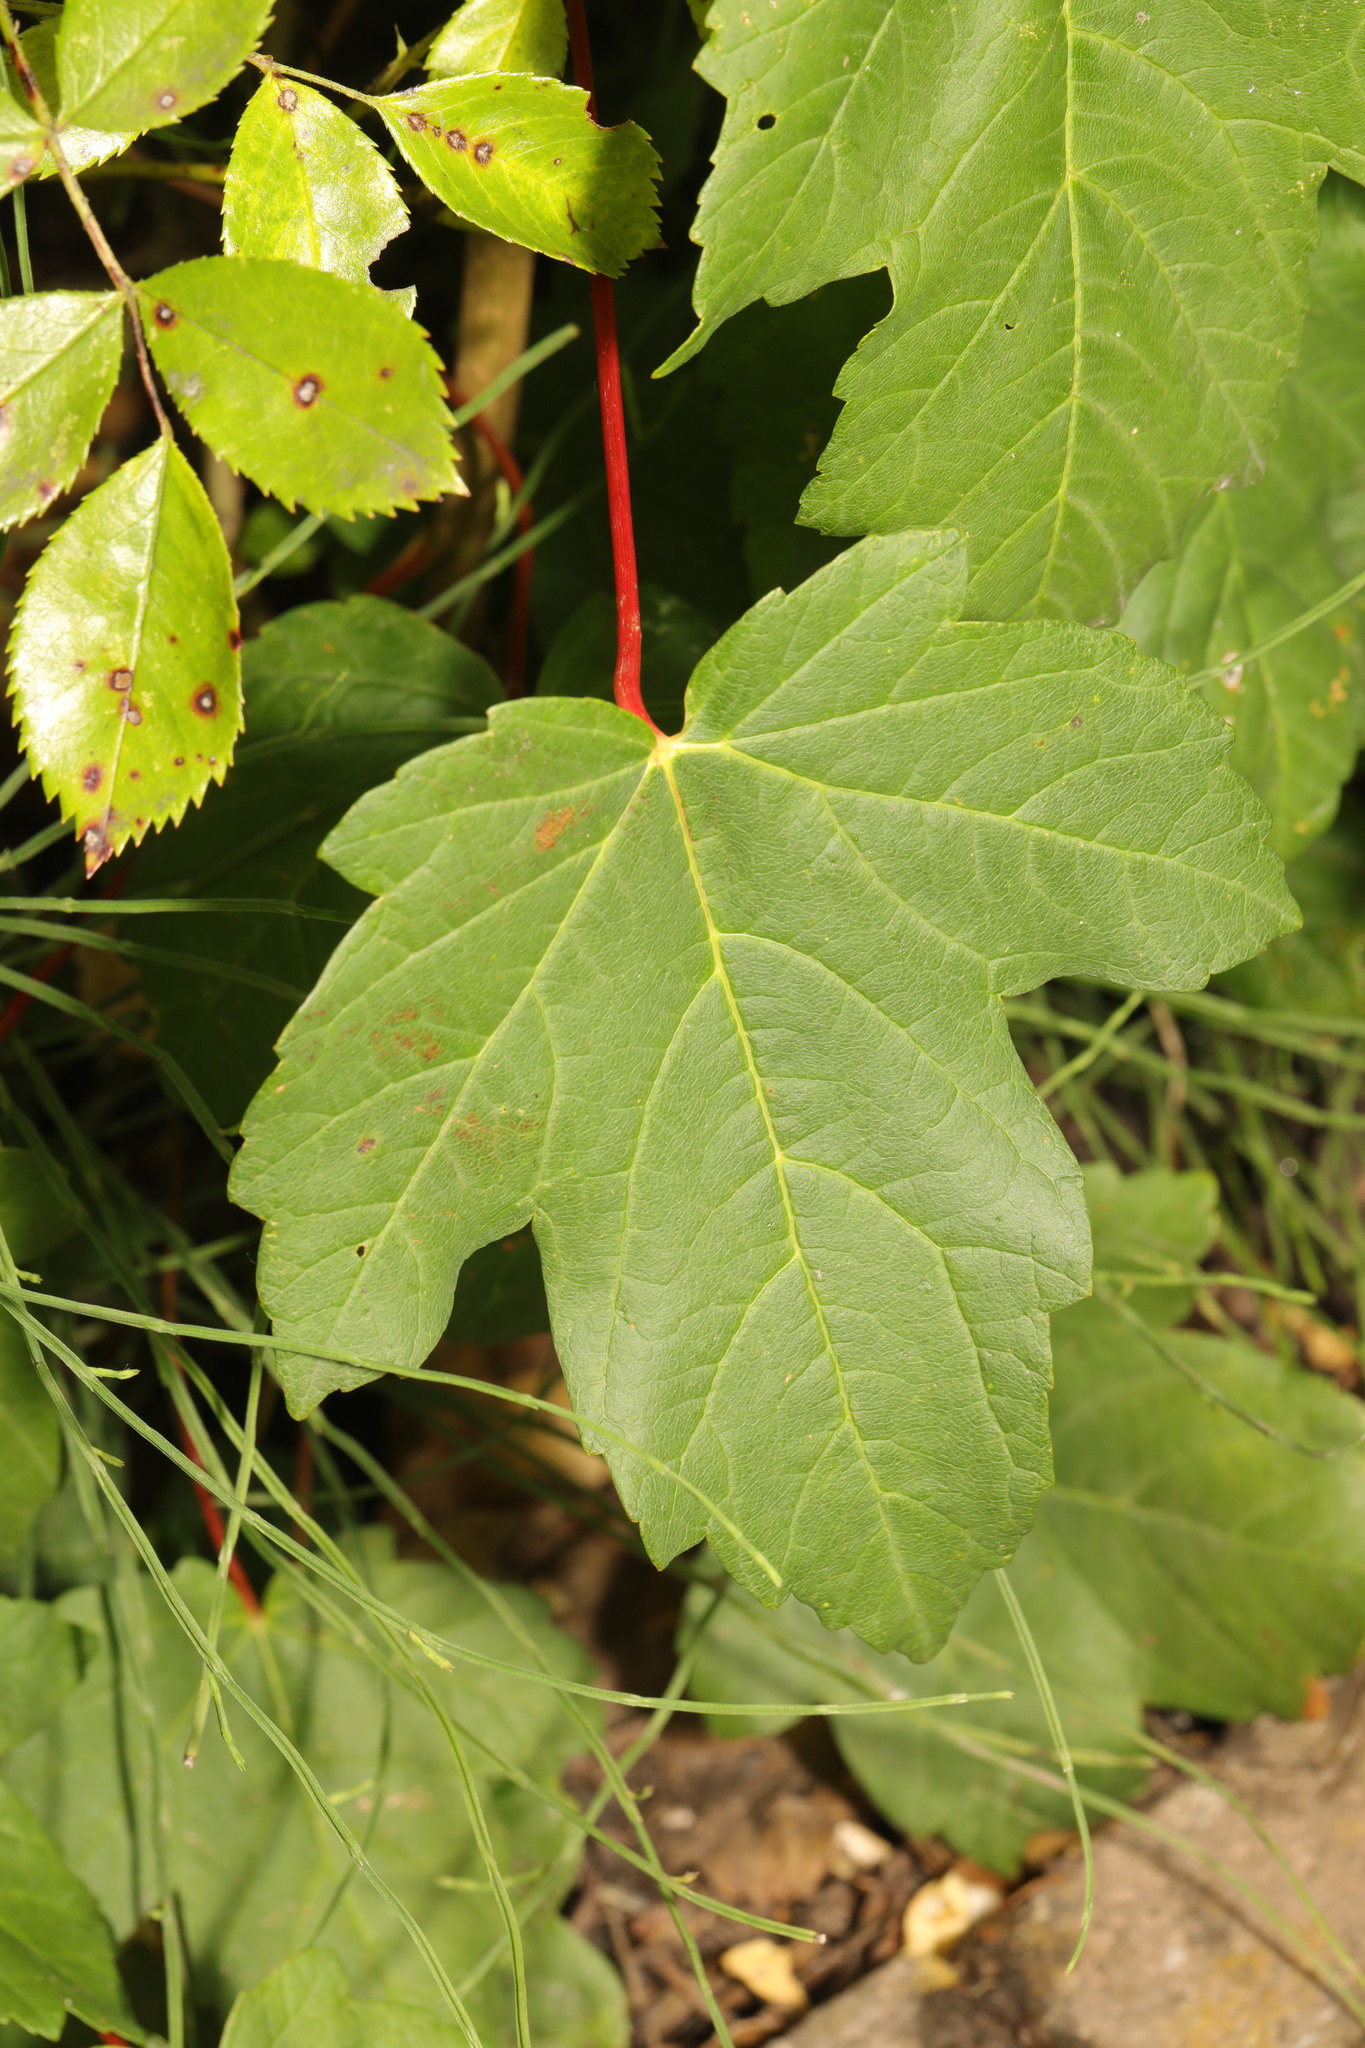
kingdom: Plantae
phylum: Tracheophyta
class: Magnoliopsida
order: Sapindales
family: Sapindaceae
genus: Acer
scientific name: Acer pseudoplatanus
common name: Sycamore
